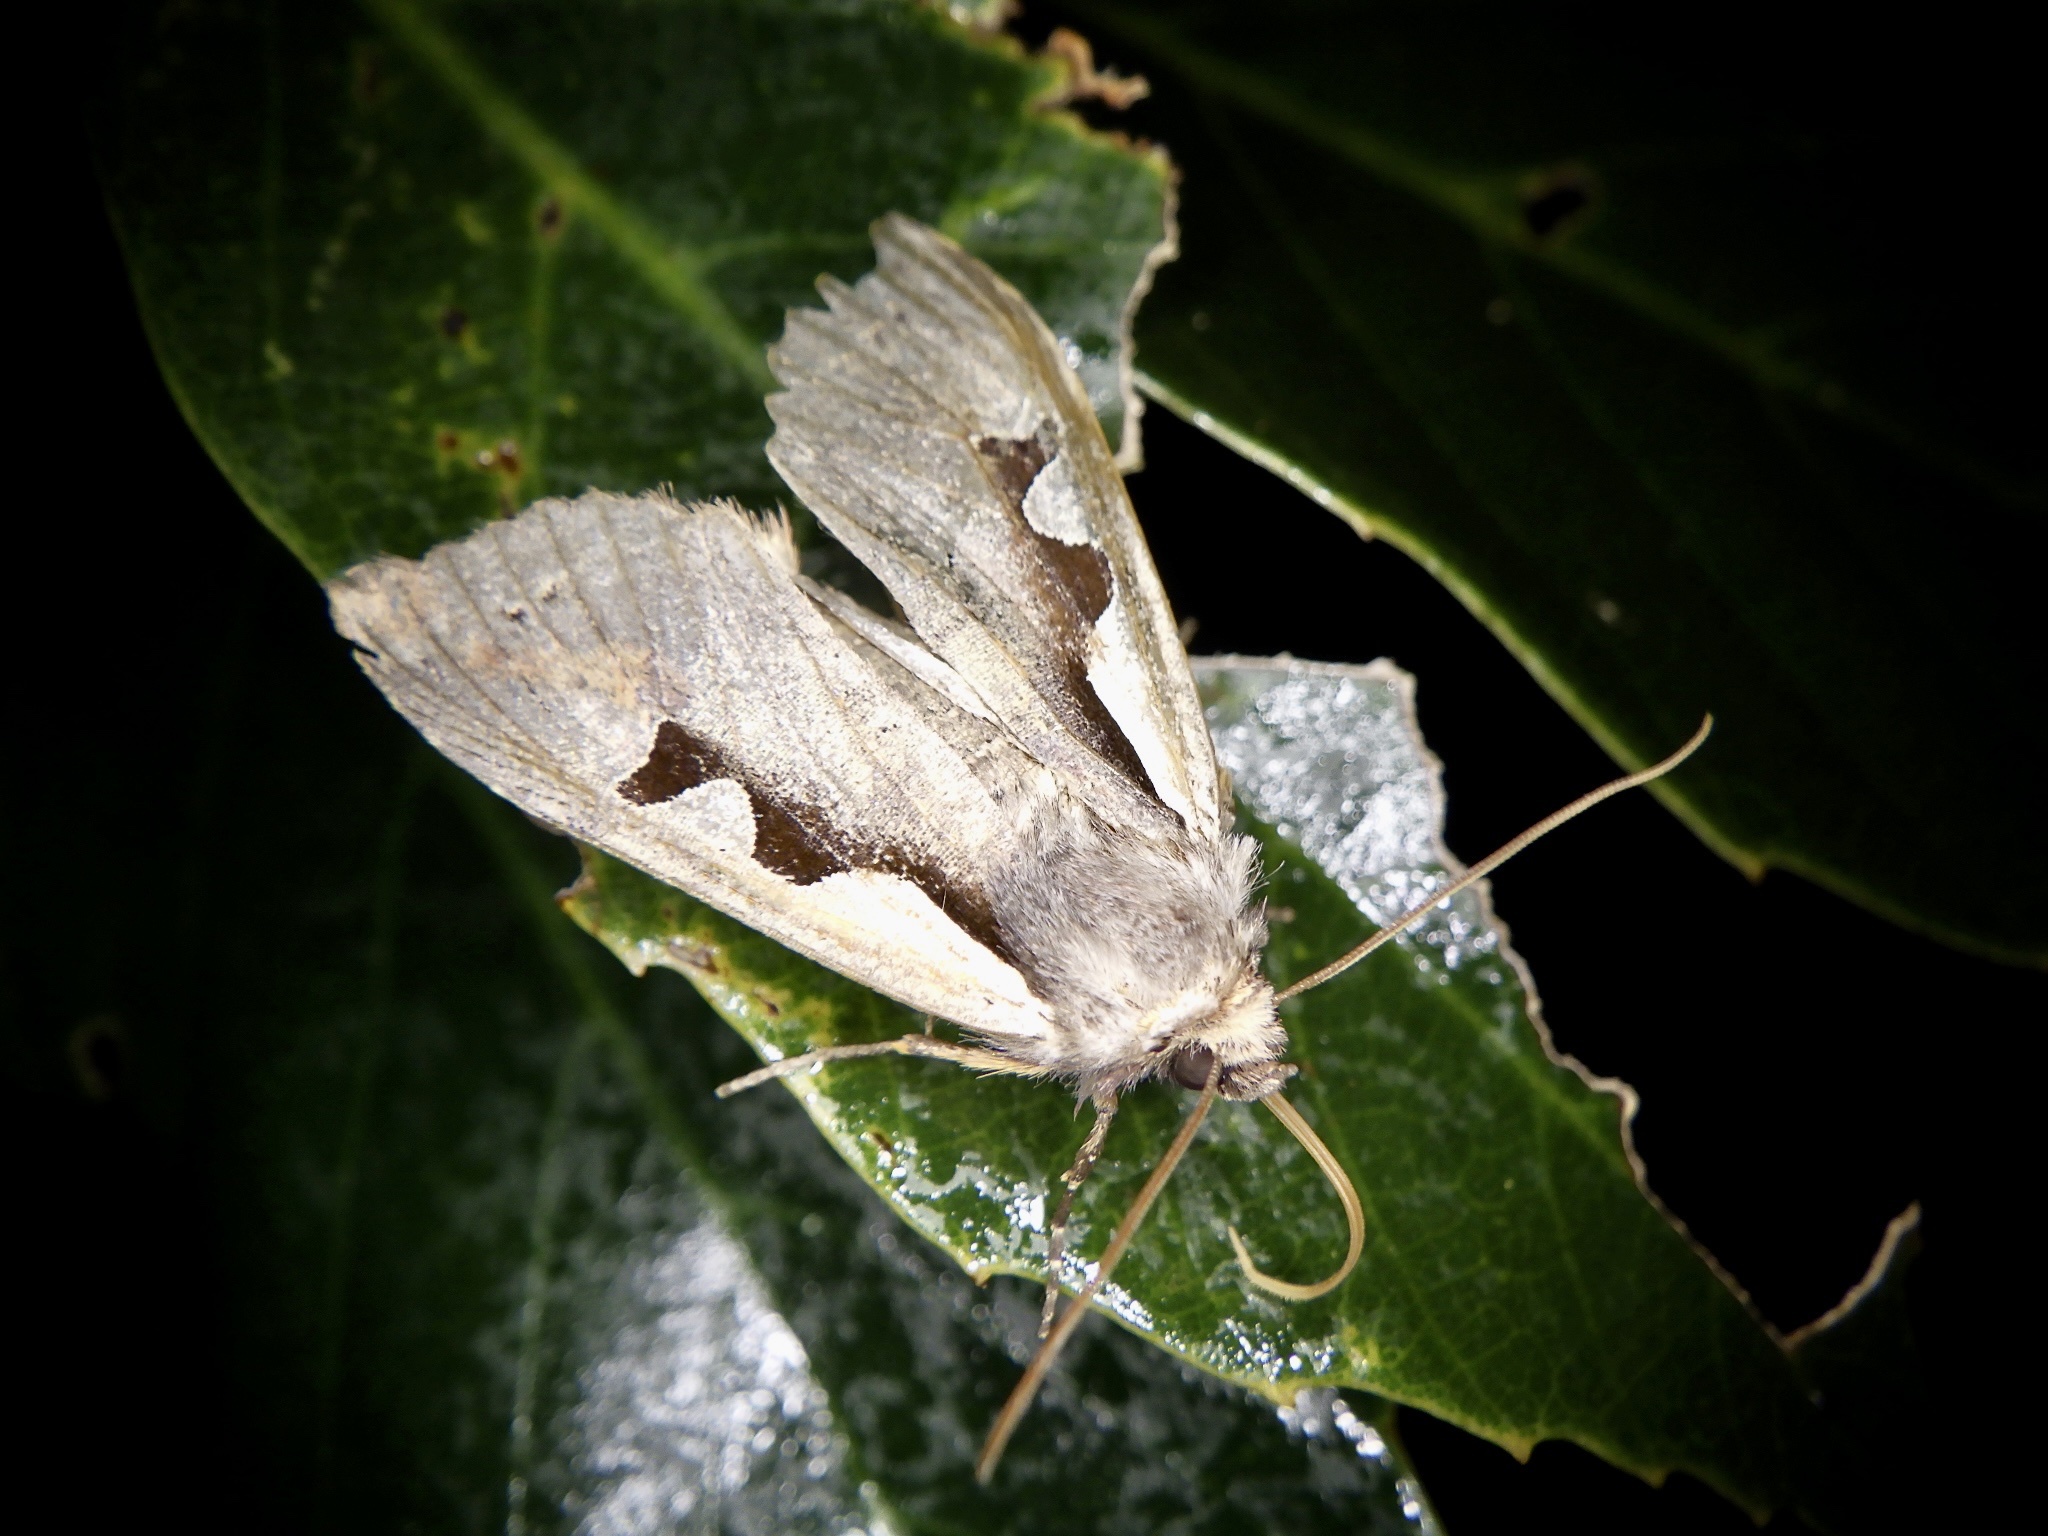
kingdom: Animalia
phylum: Arthropoda
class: Insecta
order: Lepidoptera
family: Noctuidae
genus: Sugitania
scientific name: Sugitania
